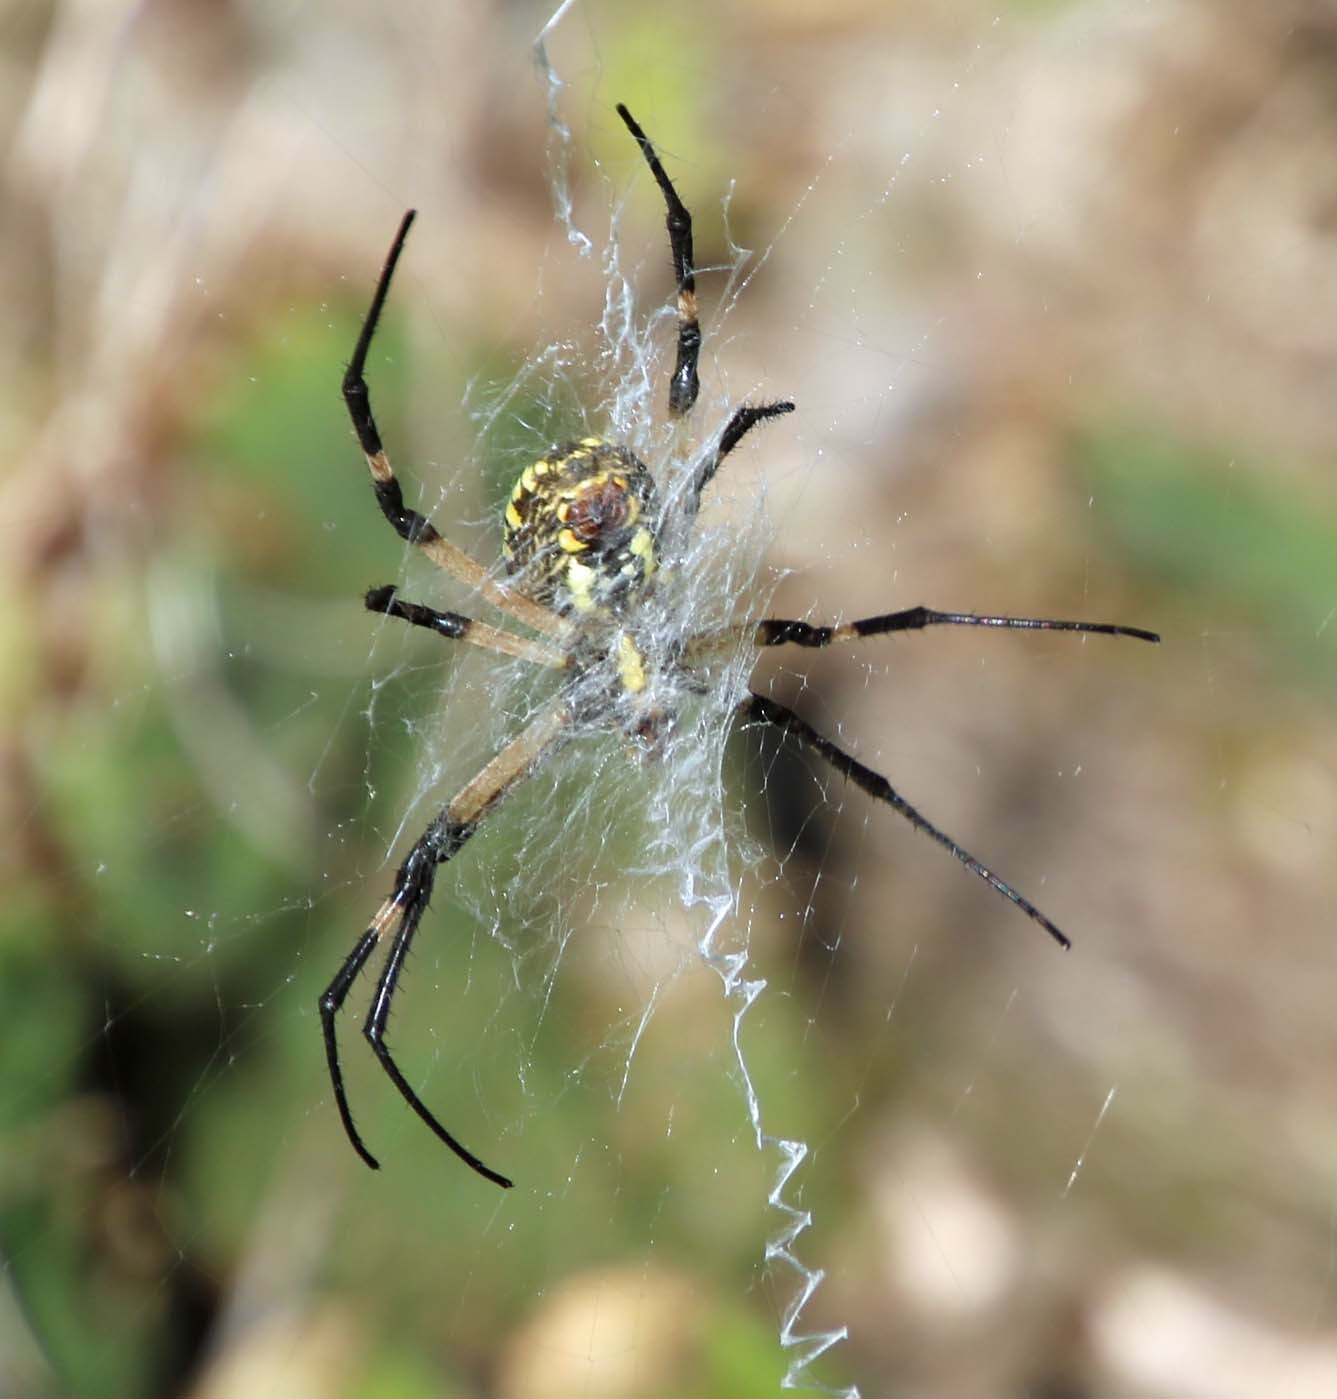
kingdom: Animalia
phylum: Arthropoda
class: Arachnida
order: Araneae
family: Araneidae
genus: Argiope
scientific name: Argiope aurantia
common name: Orb weavers
